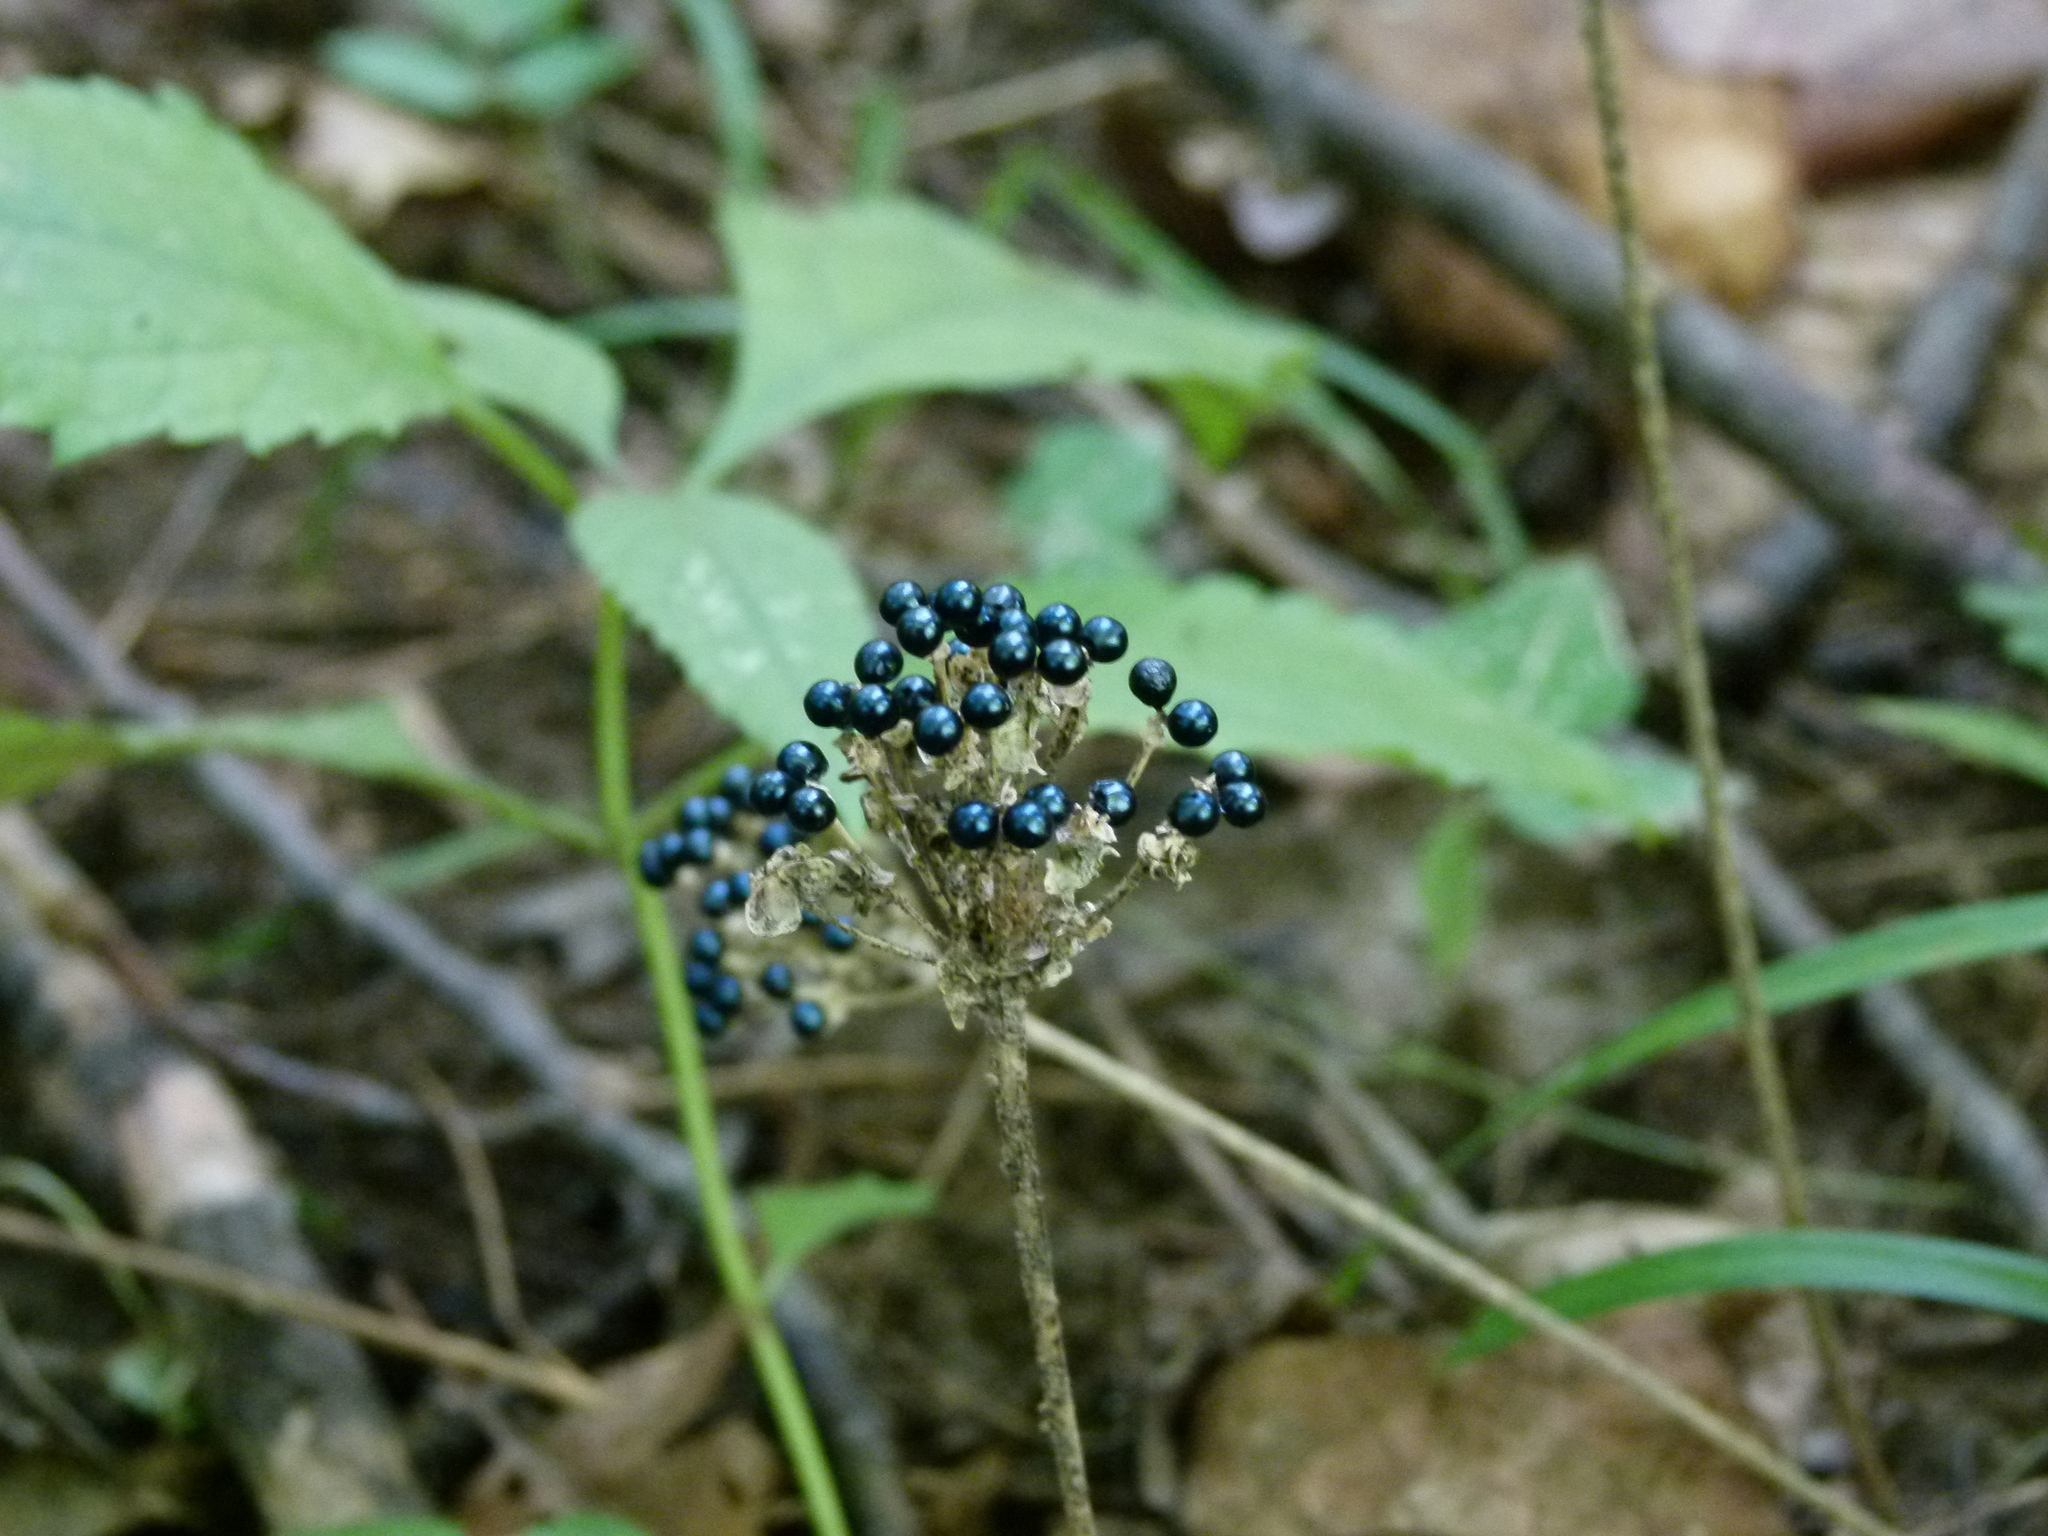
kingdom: Plantae
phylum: Tracheophyta
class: Liliopsida
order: Asparagales
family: Amaryllidaceae
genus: Allium
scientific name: Allium tricoccum
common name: Ramp
